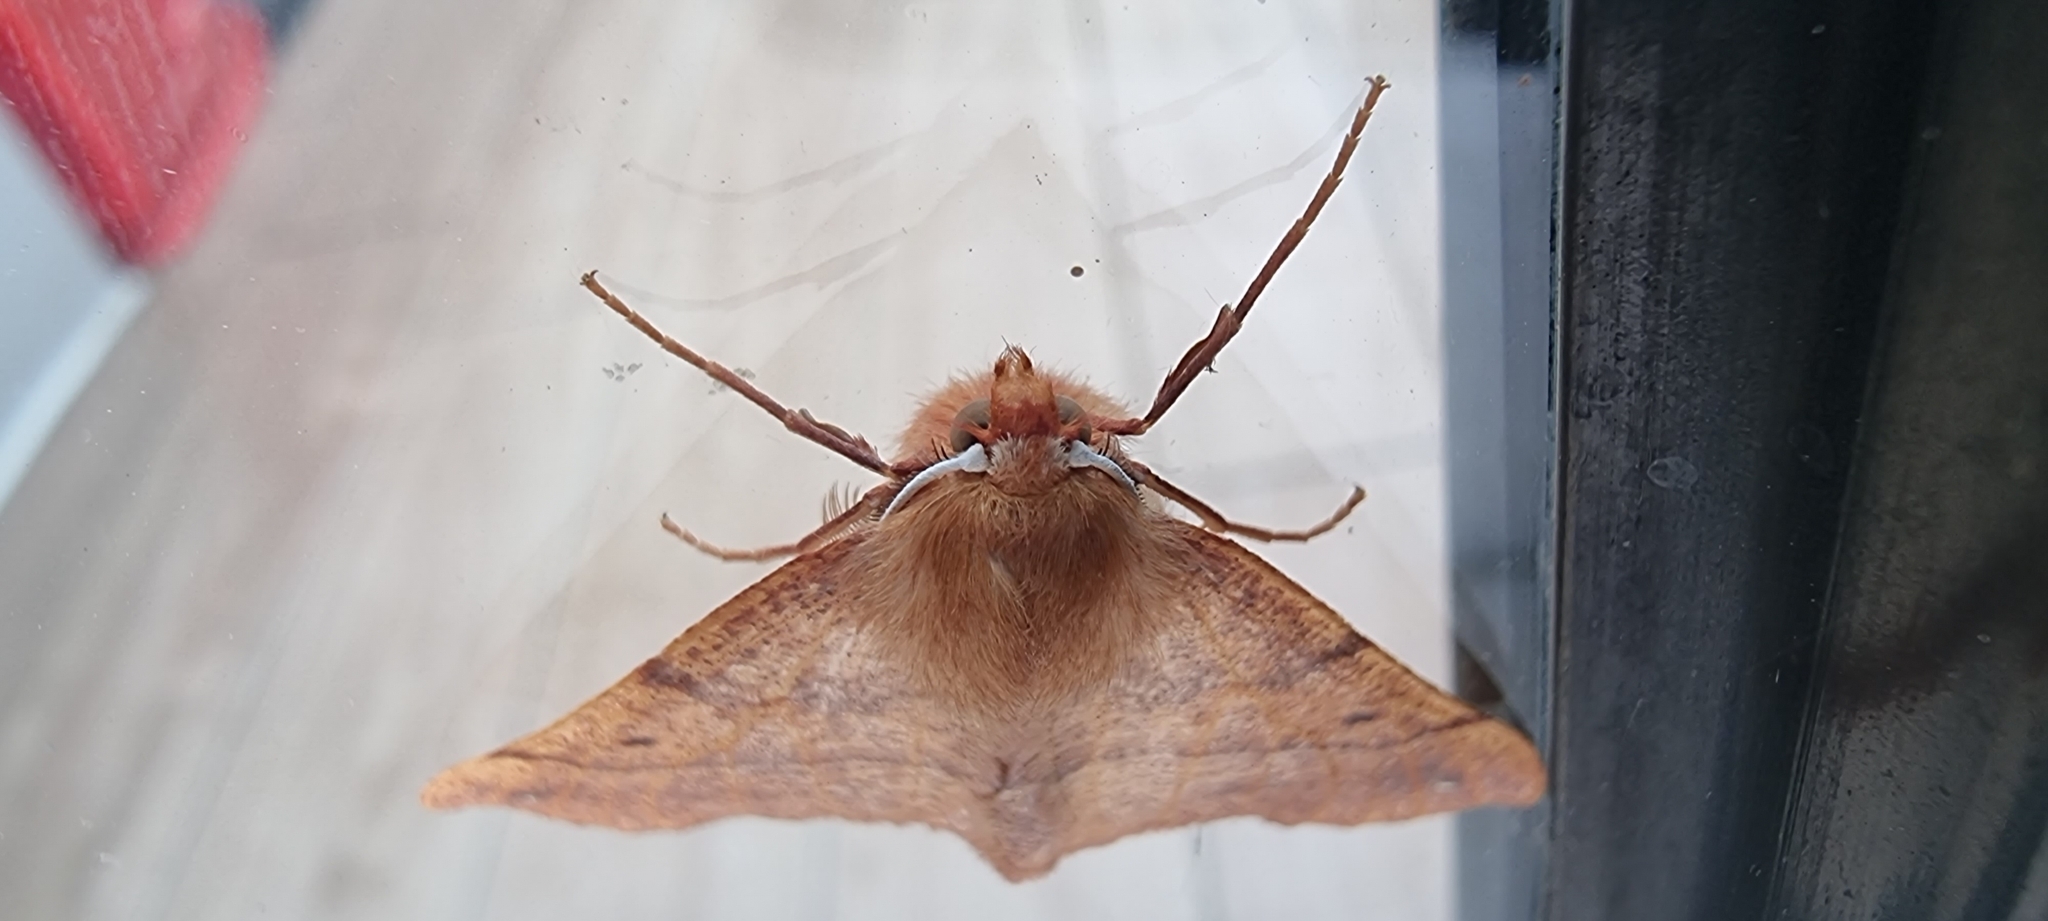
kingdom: Animalia
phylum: Arthropoda
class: Insecta
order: Lepidoptera
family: Geometridae
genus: Colotois
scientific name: Colotois pennaria
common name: Feathered thorn
